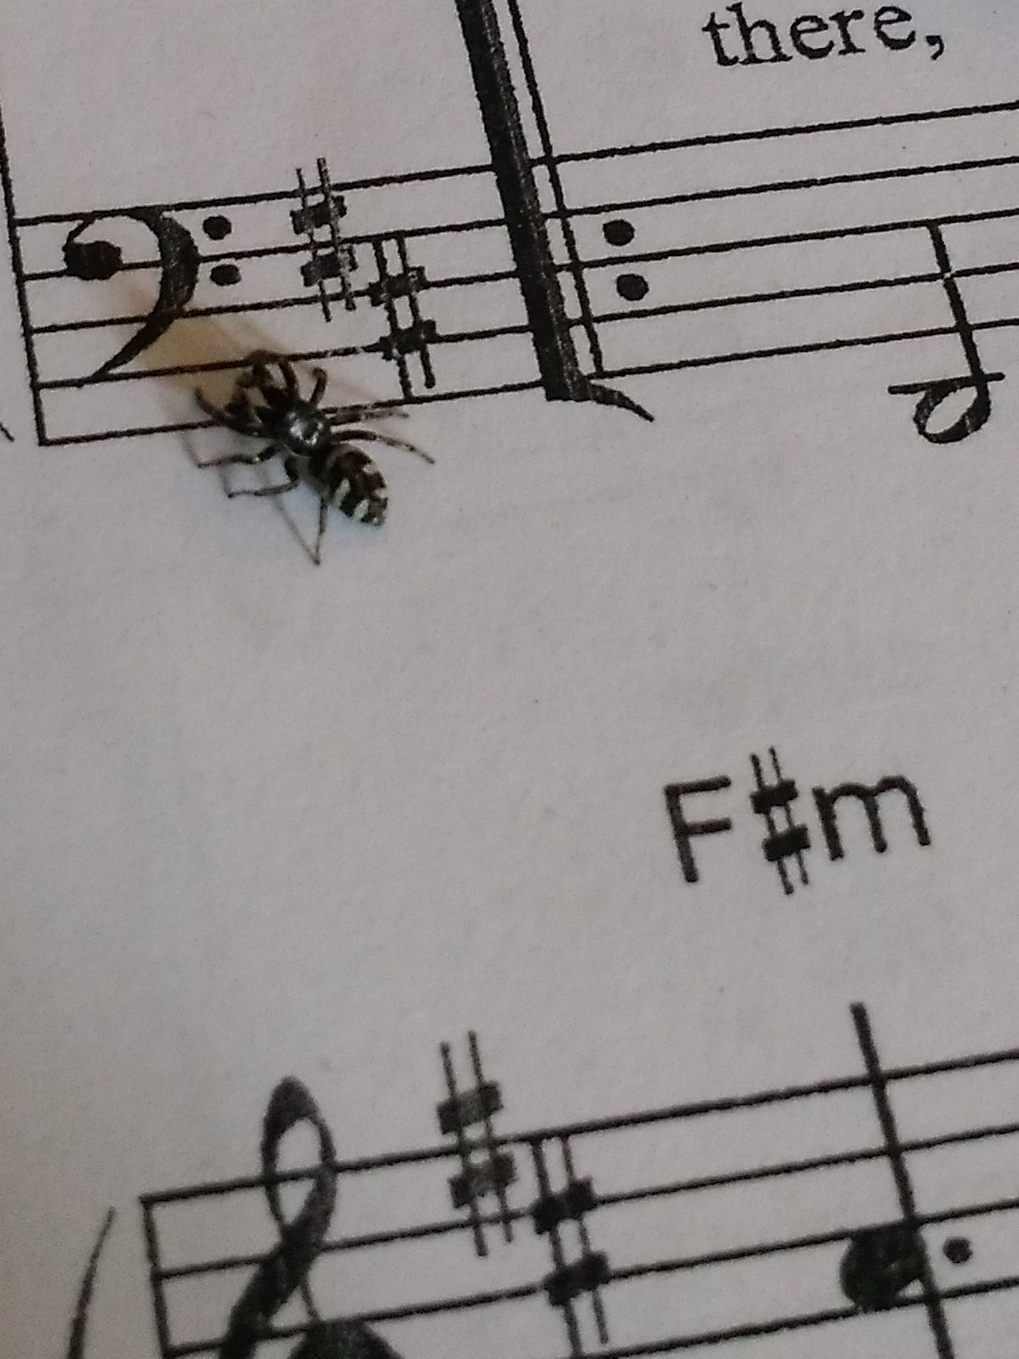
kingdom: Animalia
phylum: Arthropoda
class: Arachnida
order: Araneae
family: Salticidae
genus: Salticus
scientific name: Salticus scenicus
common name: Zebra jumper
